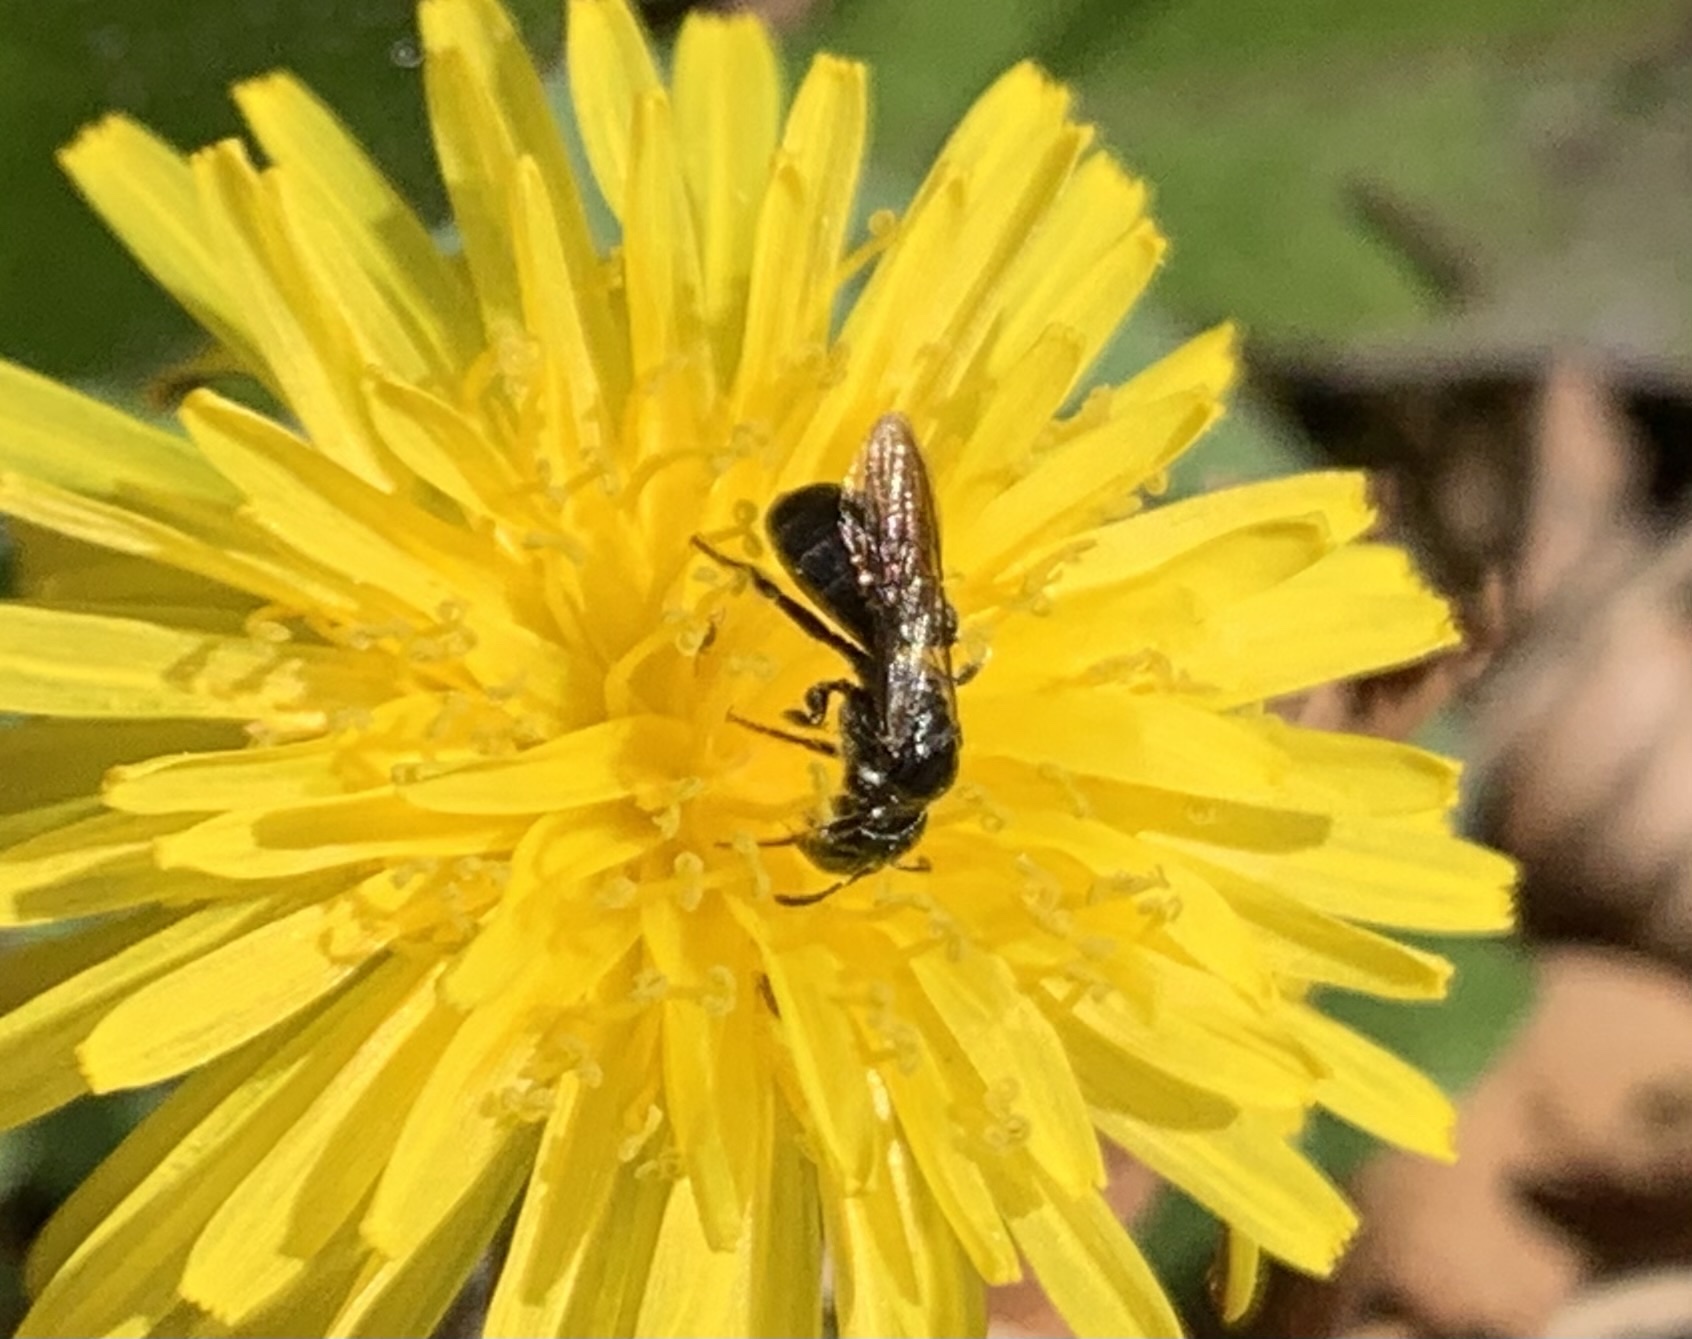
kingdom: Animalia
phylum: Arthropoda
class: Insecta
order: Hymenoptera
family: Apidae
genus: Ceratina
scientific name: Ceratina cucurbitina
